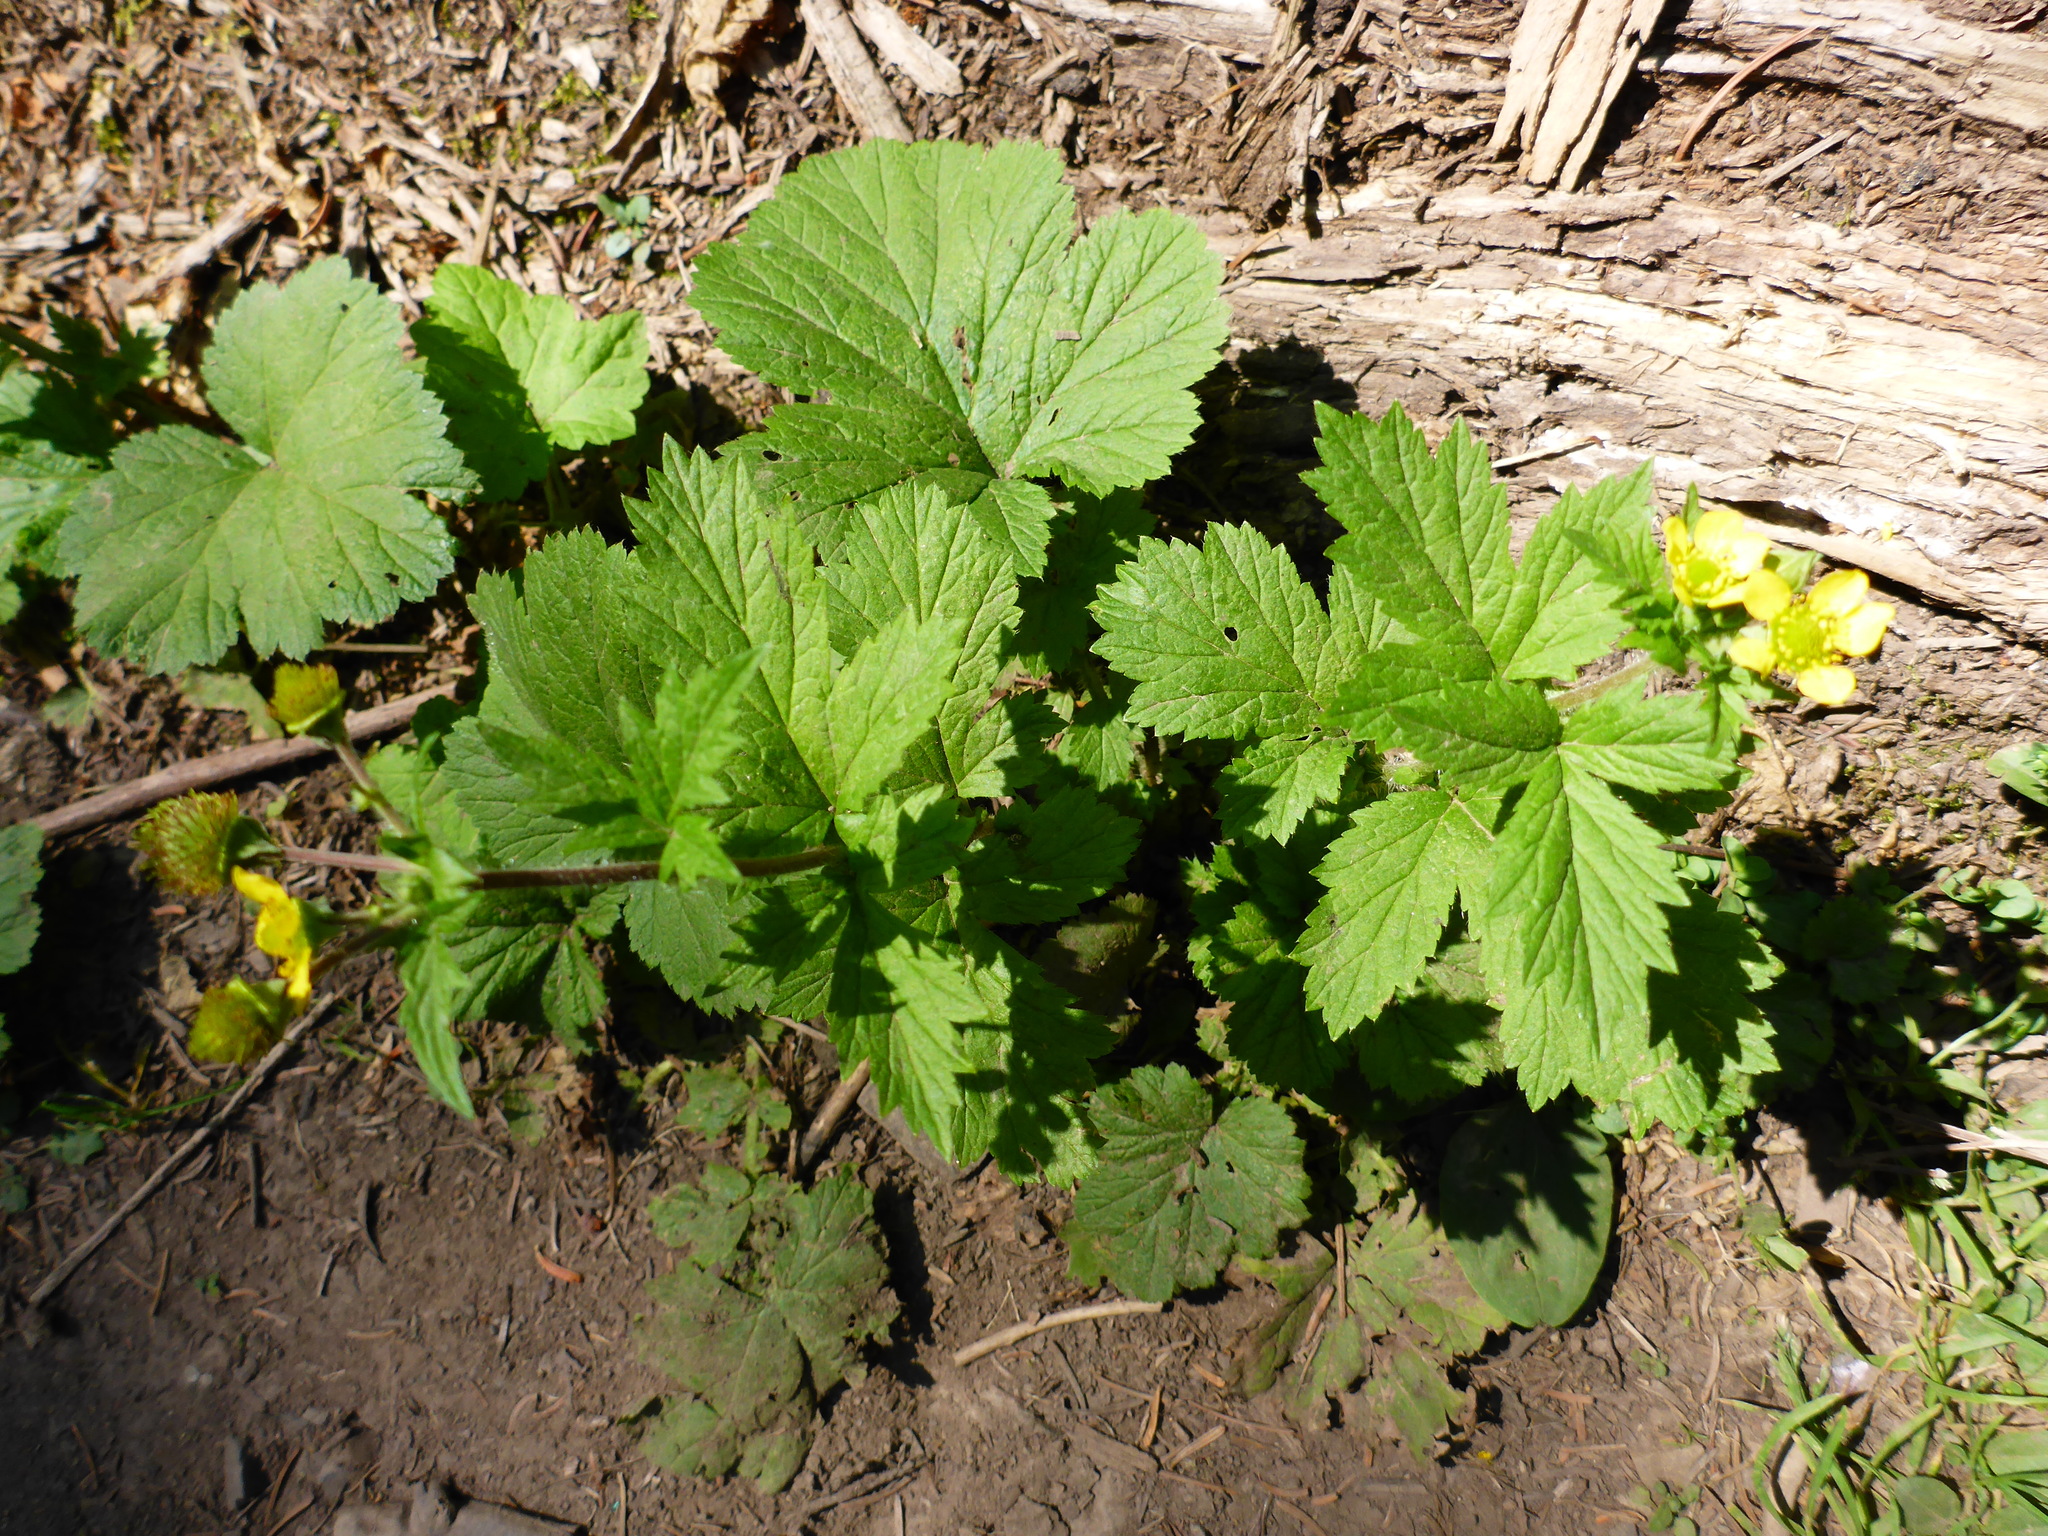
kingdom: Plantae
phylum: Tracheophyta
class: Magnoliopsida
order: Rosales
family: Rosaceae
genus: Geum
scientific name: Geum macrophyllum
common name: Large-leaved avens
